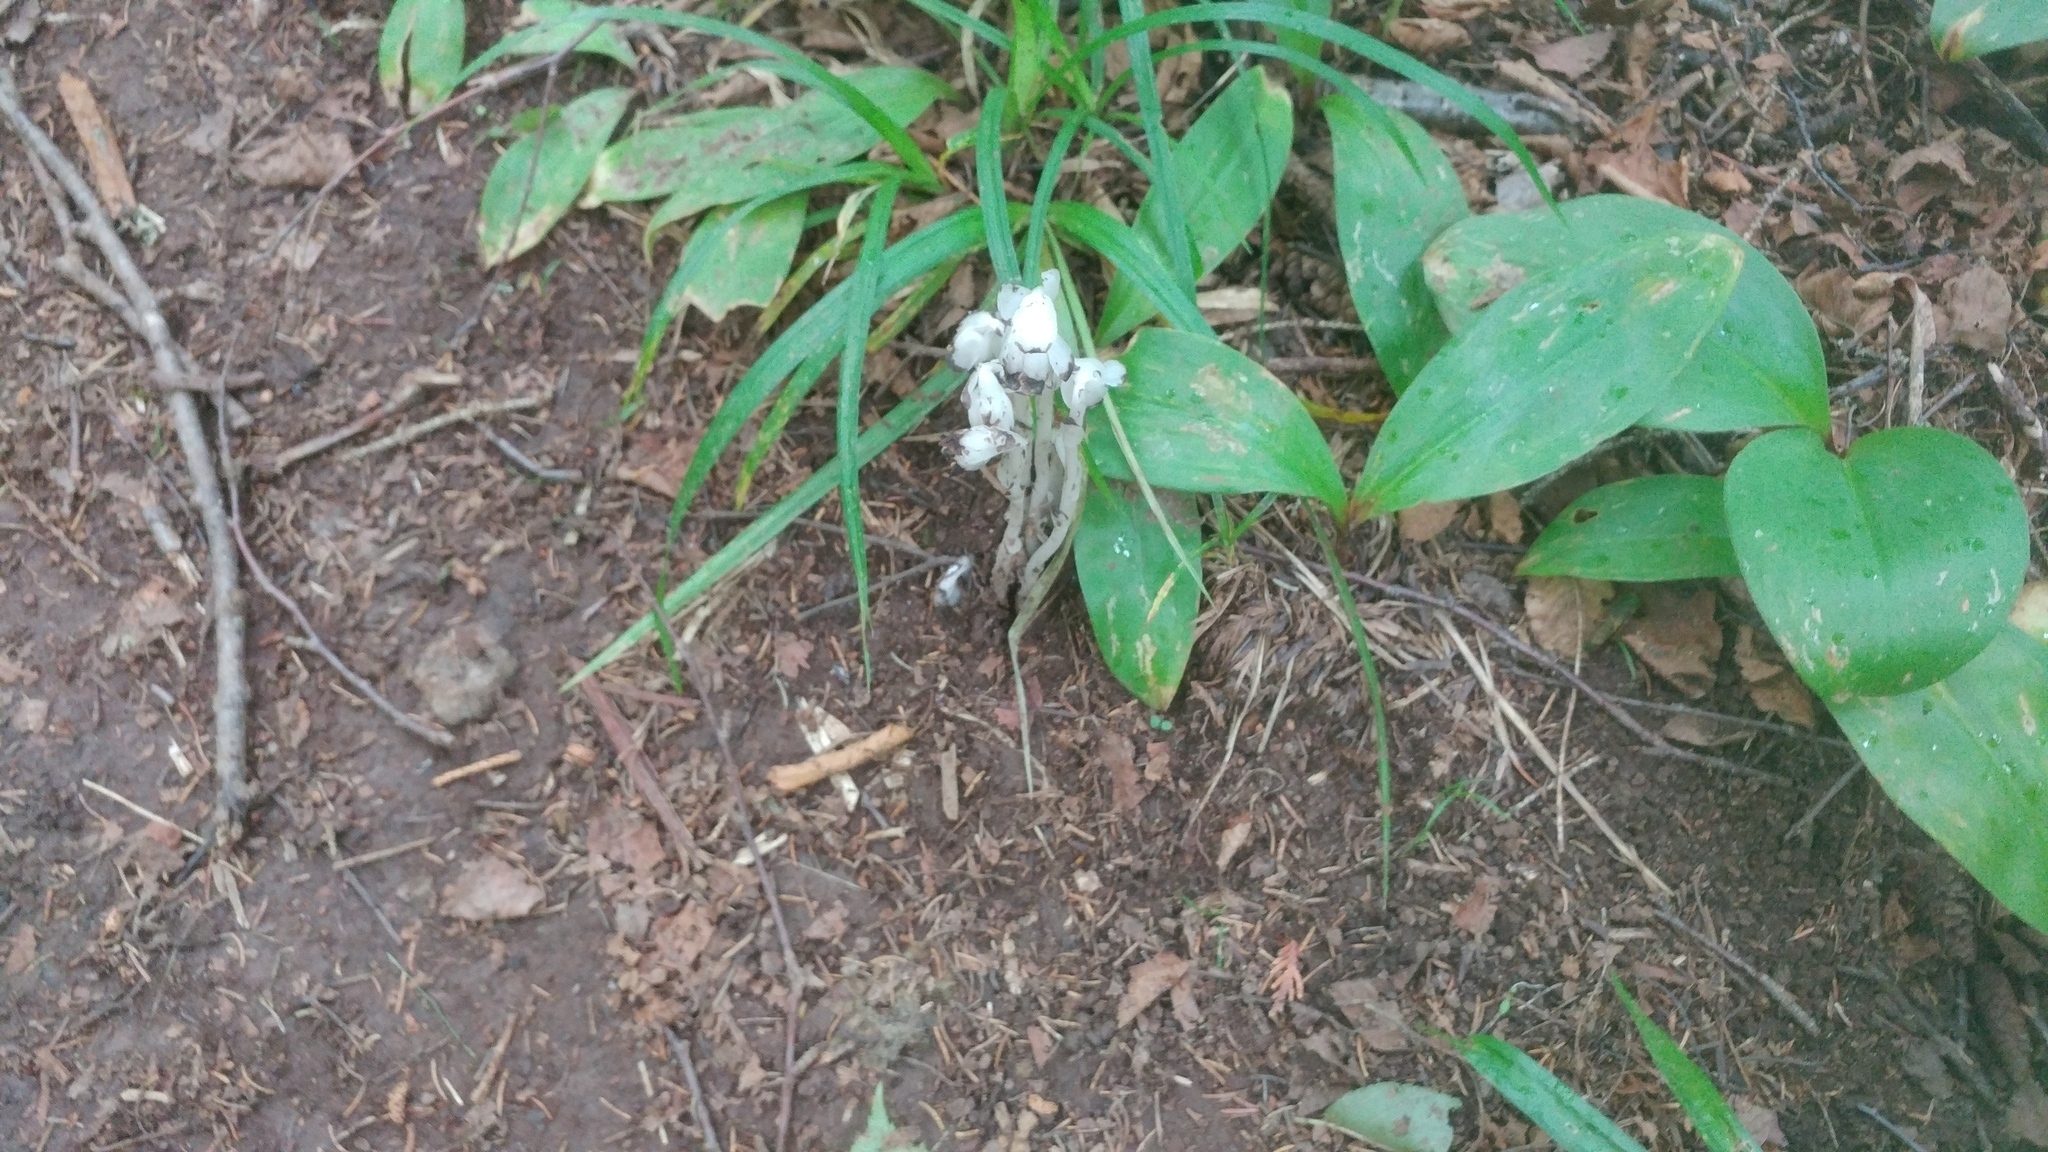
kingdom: Plantae
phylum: Tracheophyta
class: Magnoliopsida
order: Ericales
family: Ericaceae
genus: Monotropa
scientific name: Monotropa uniflora
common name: Convulsion root
